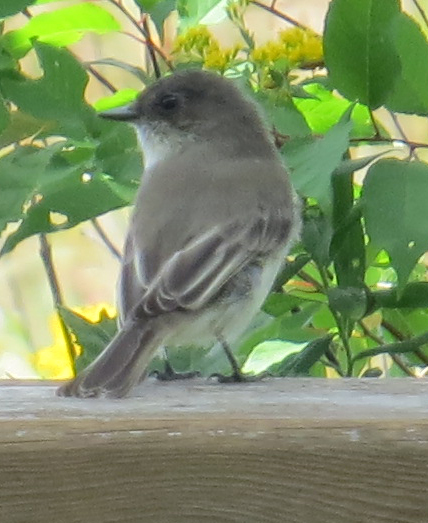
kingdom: Animalia
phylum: Chordata
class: Aves
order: Passeriformes
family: Tyrannidae
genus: Sayornis
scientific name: Sayornis phoebe
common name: Eastern phoebe
